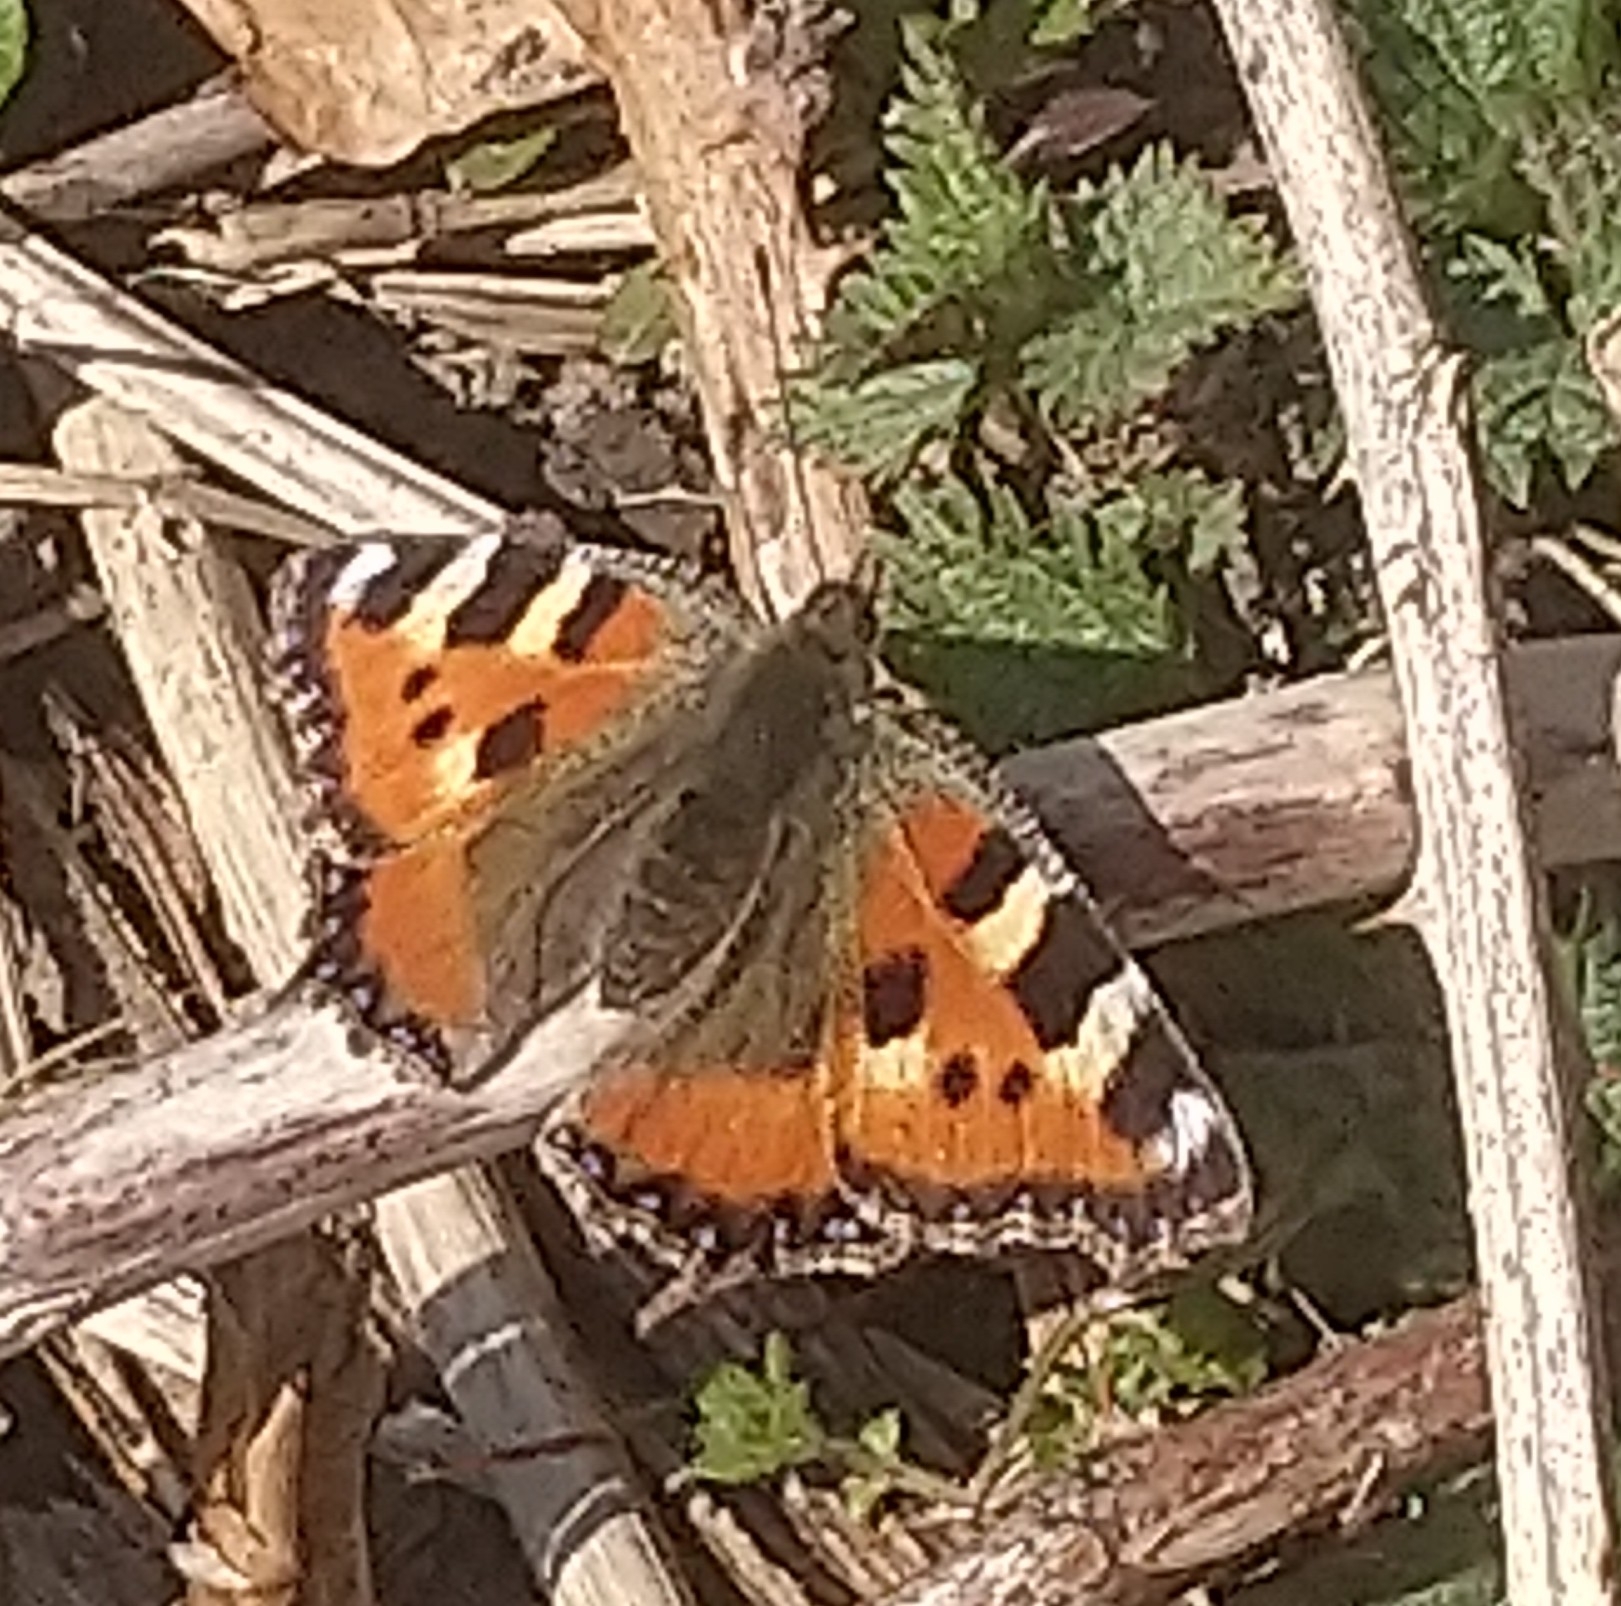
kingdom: Animalia
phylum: Arthropoda
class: Insecta
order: Lepidoptera
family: Nymphalidae
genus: Aglais
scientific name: Aglais urticae
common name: Small tortoiseshell
